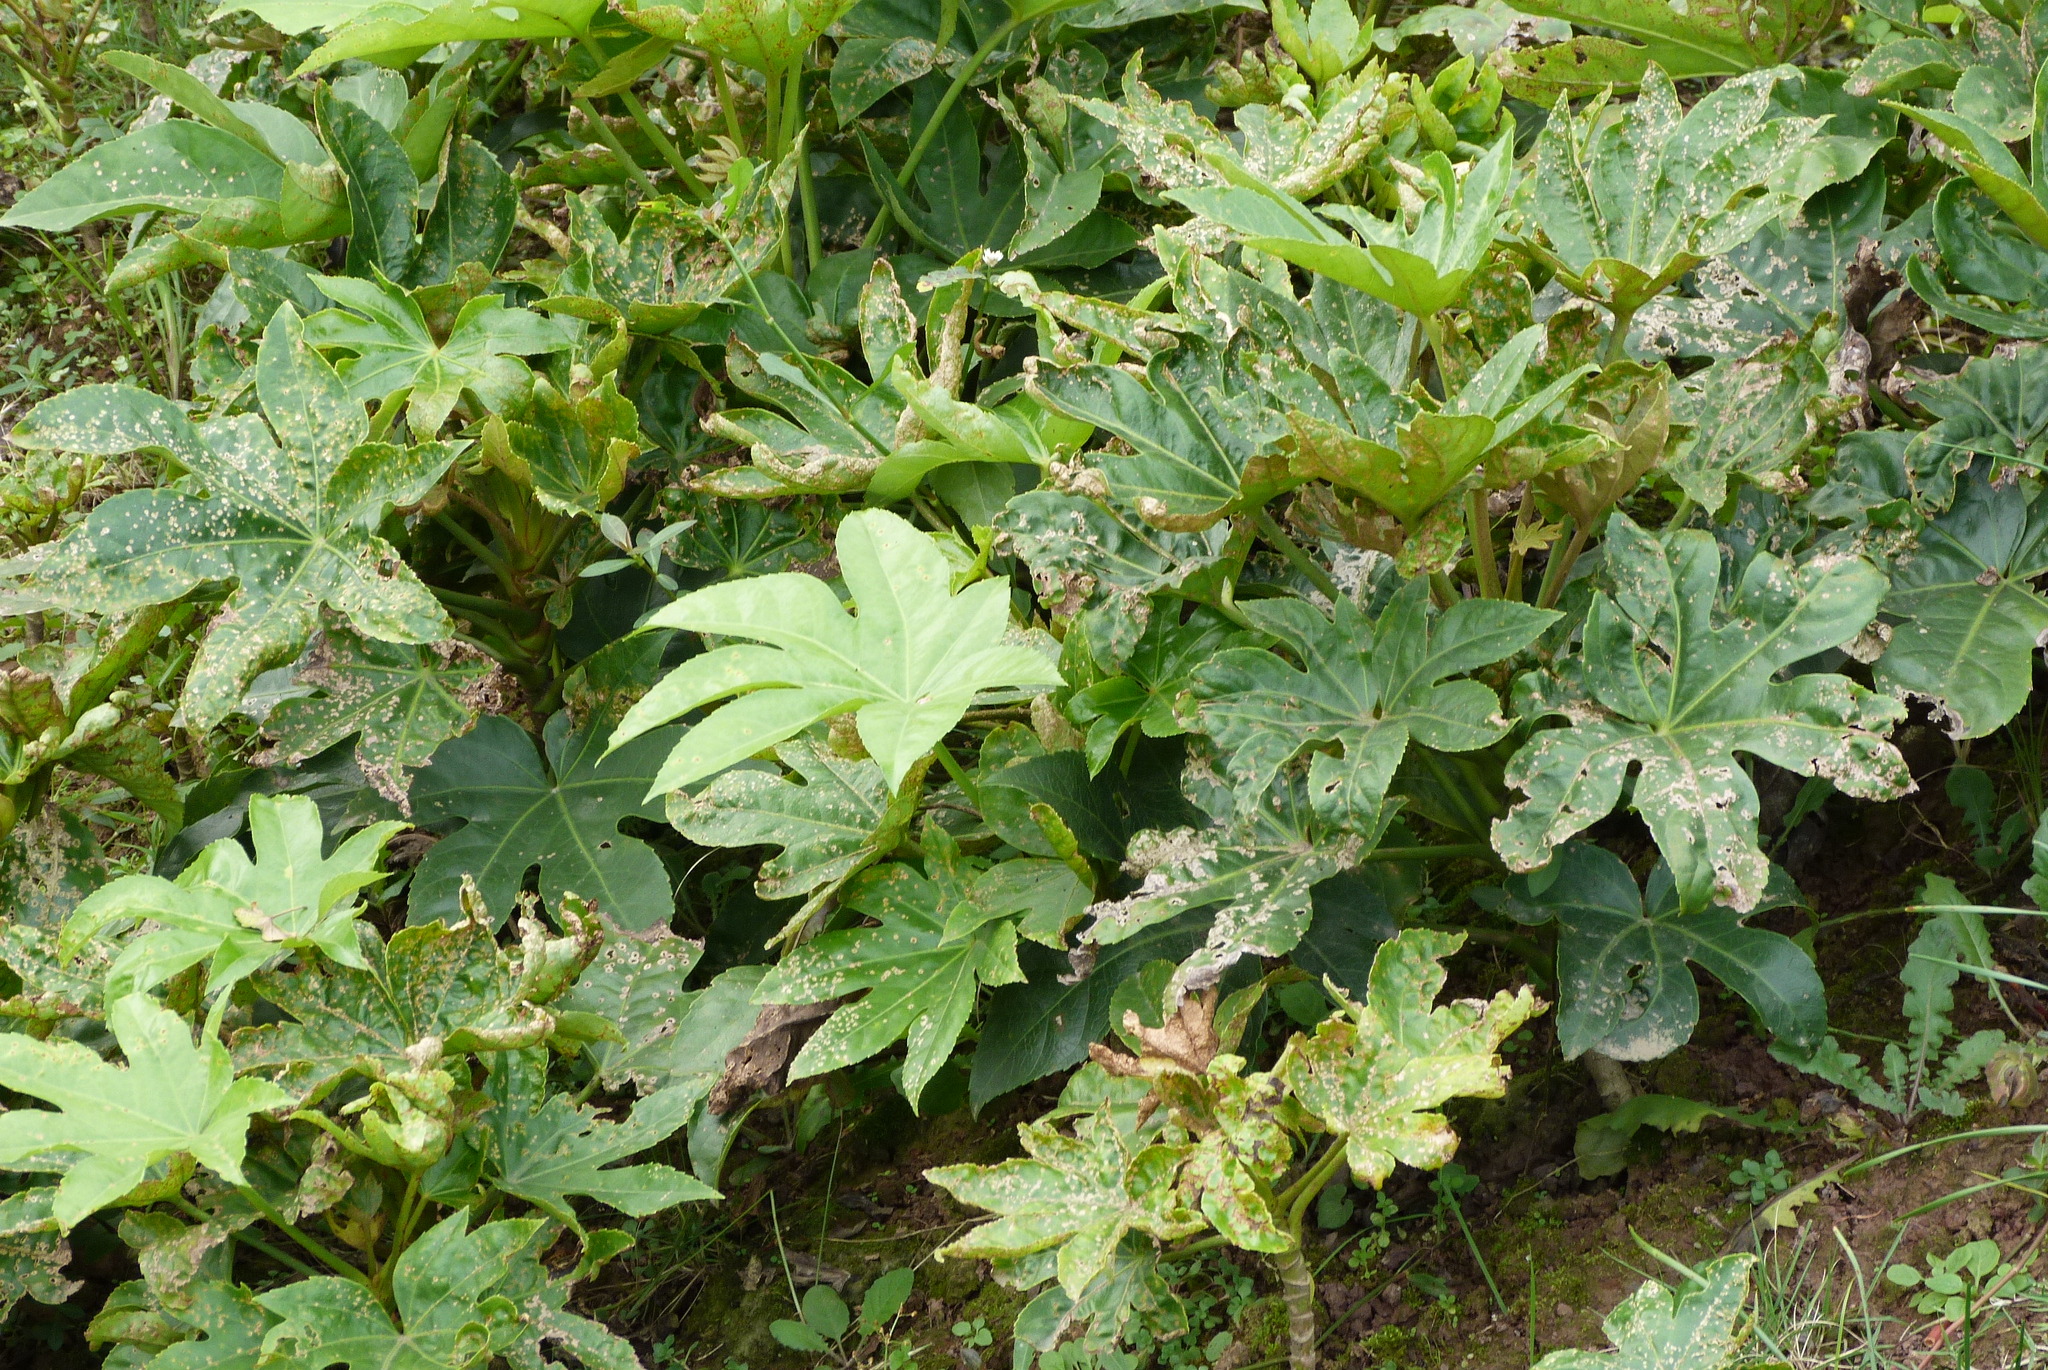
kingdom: Plantae
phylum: Tracheophyta
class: Magnoliopsida
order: Apiales
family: Araliaceae
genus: Fatsia
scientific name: Fatsia japonica
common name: Fatsia
